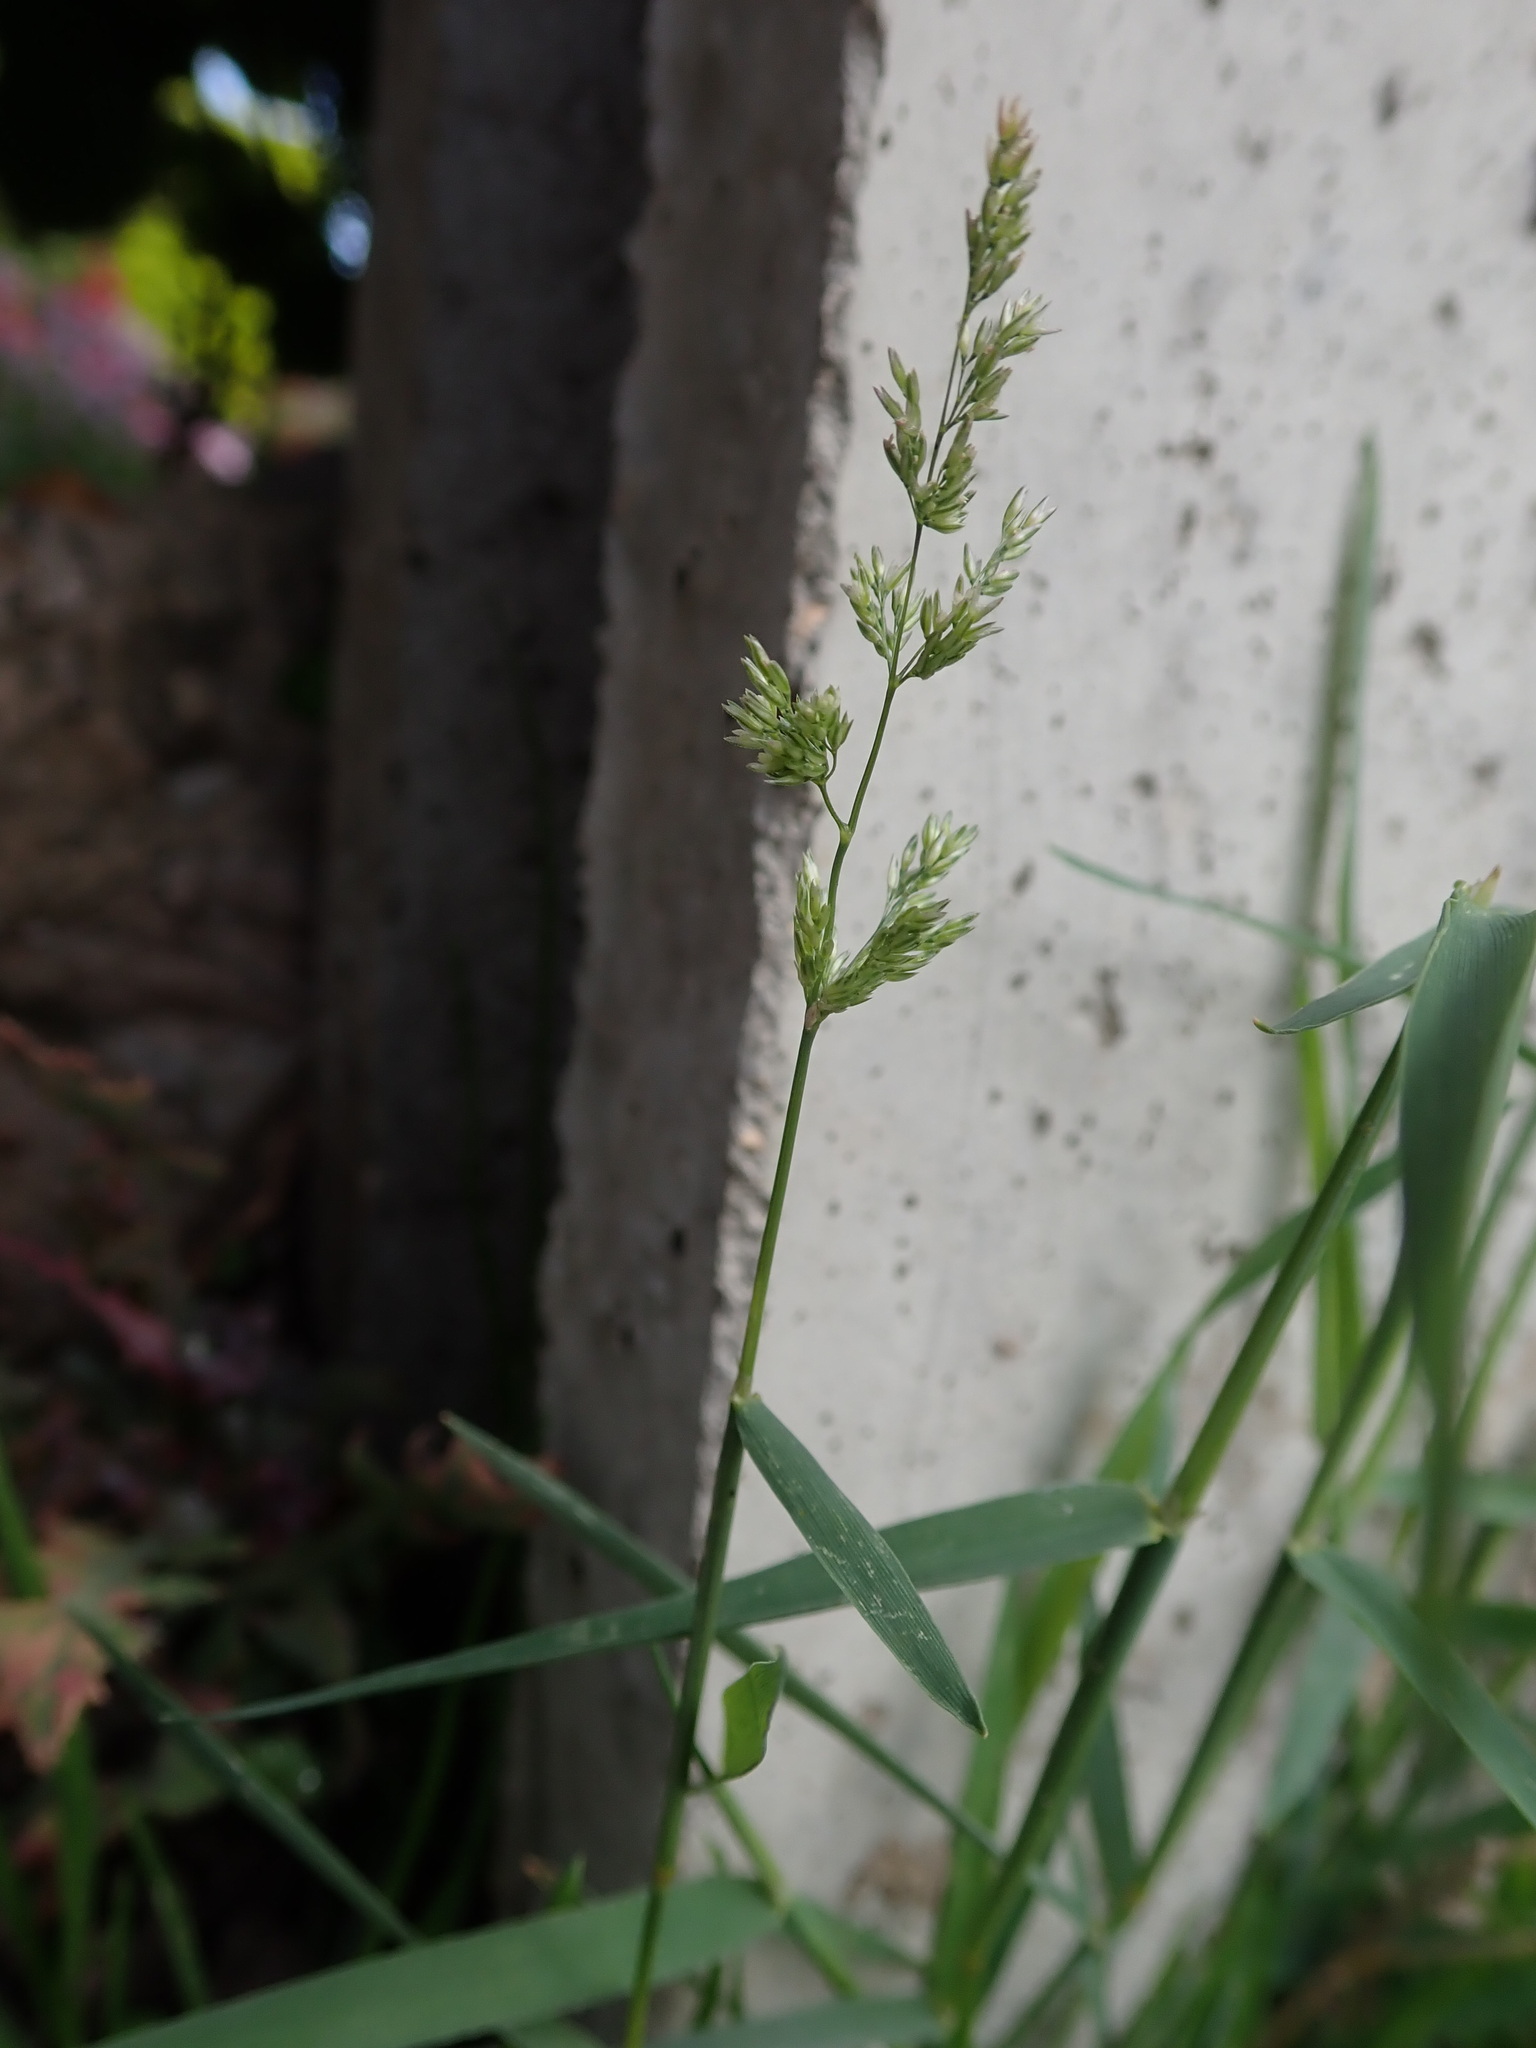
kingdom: Plantae
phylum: Tracheophyta
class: Liliopsida
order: Poales
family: Poaceae
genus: Polypogon
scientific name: Polypogon viridis
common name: Water bent
